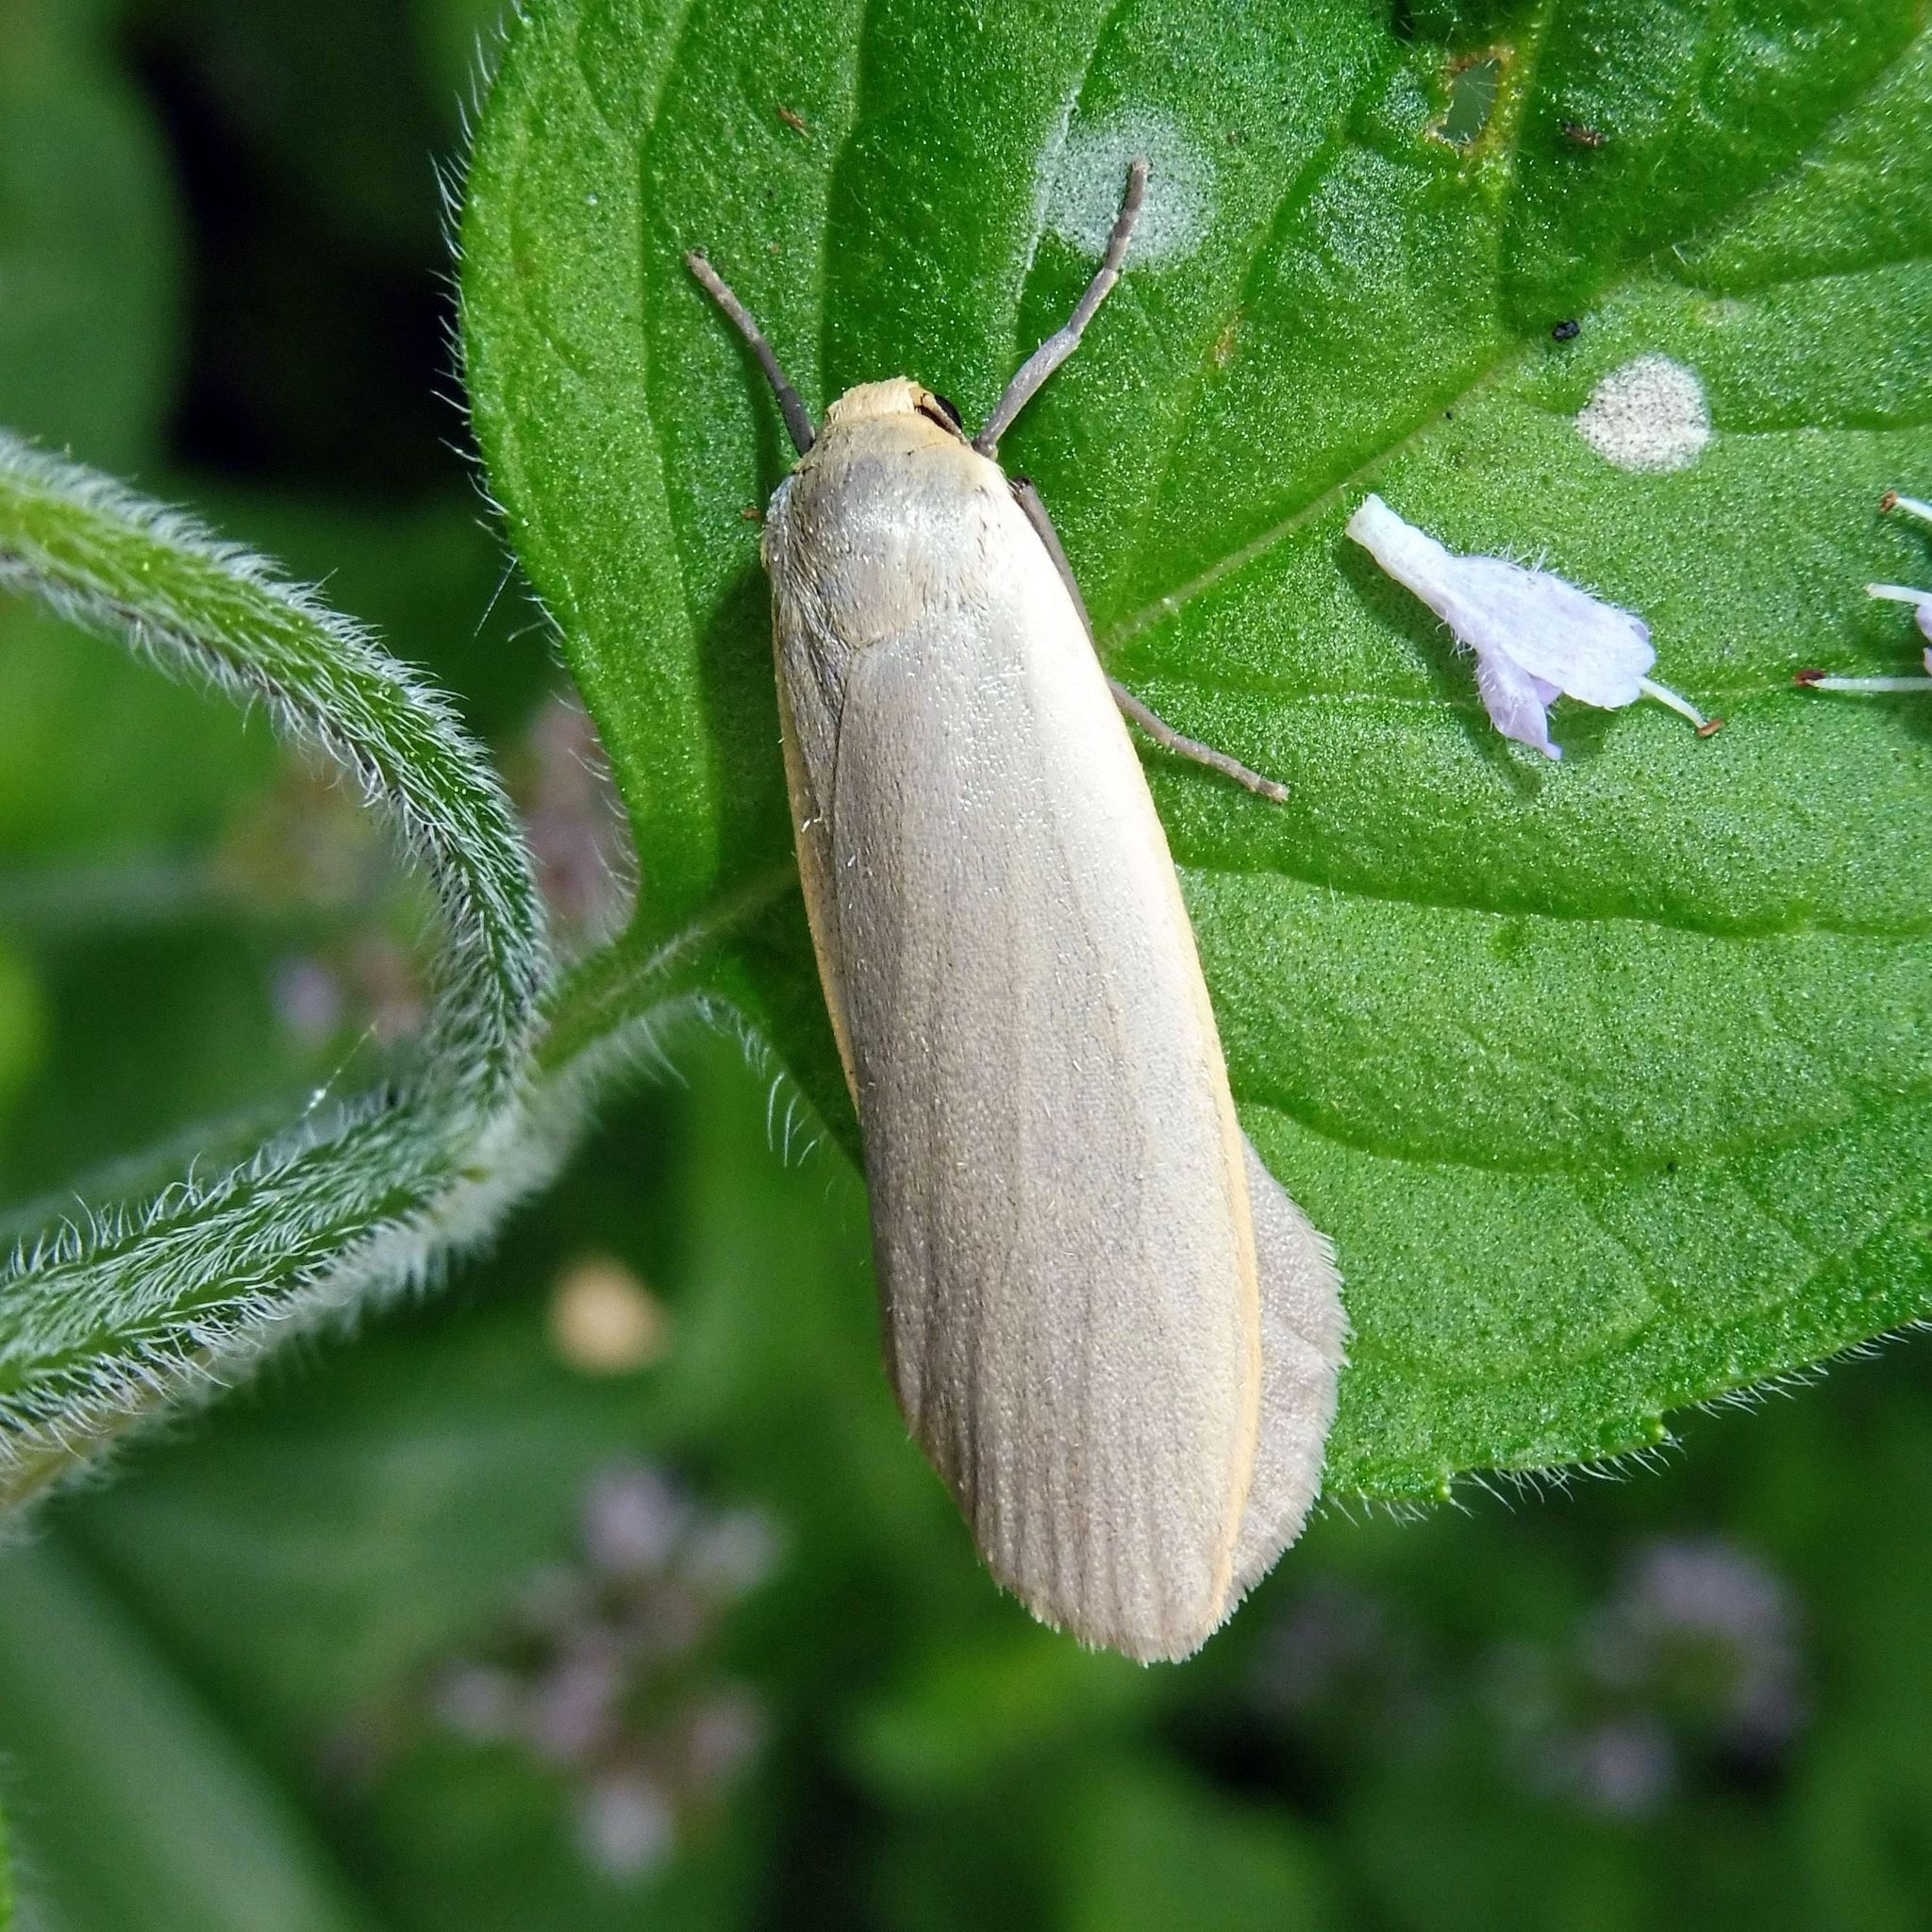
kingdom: Animalia
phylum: Arthropoda
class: Insecta
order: Lepidoptera
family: Erebidae
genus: Collita
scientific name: Collita griseola
